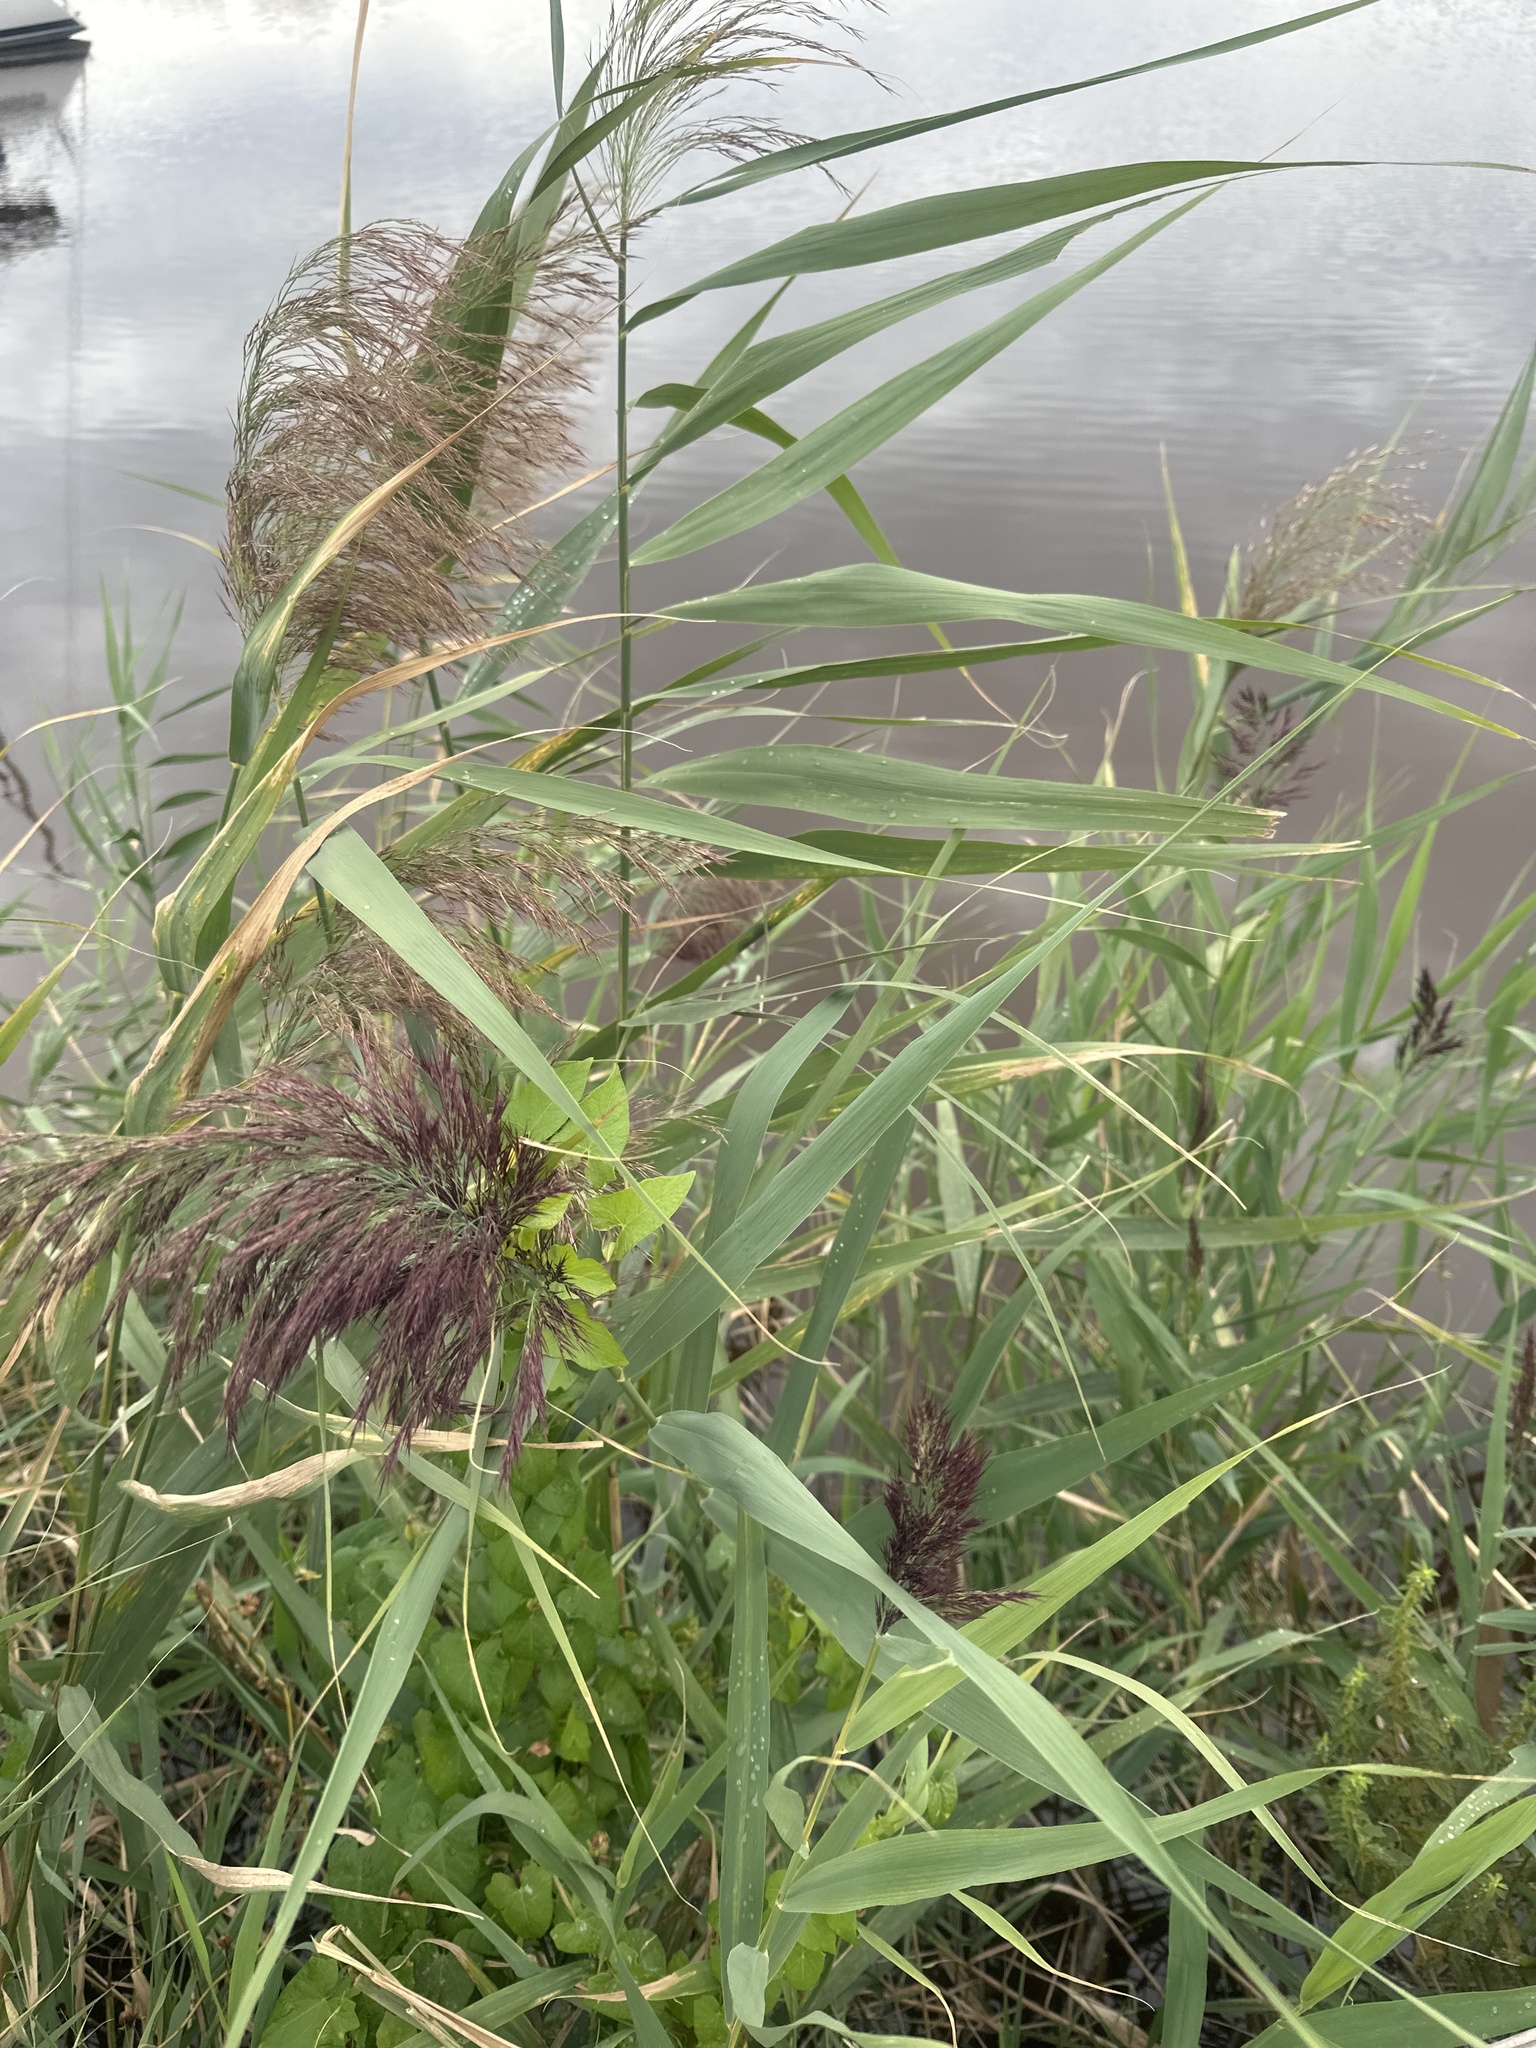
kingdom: Plantae
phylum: Tracheophyta
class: Liliopsida
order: Poales
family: Poaceae
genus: Phragmites
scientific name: Phragmites australis
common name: Common reed
